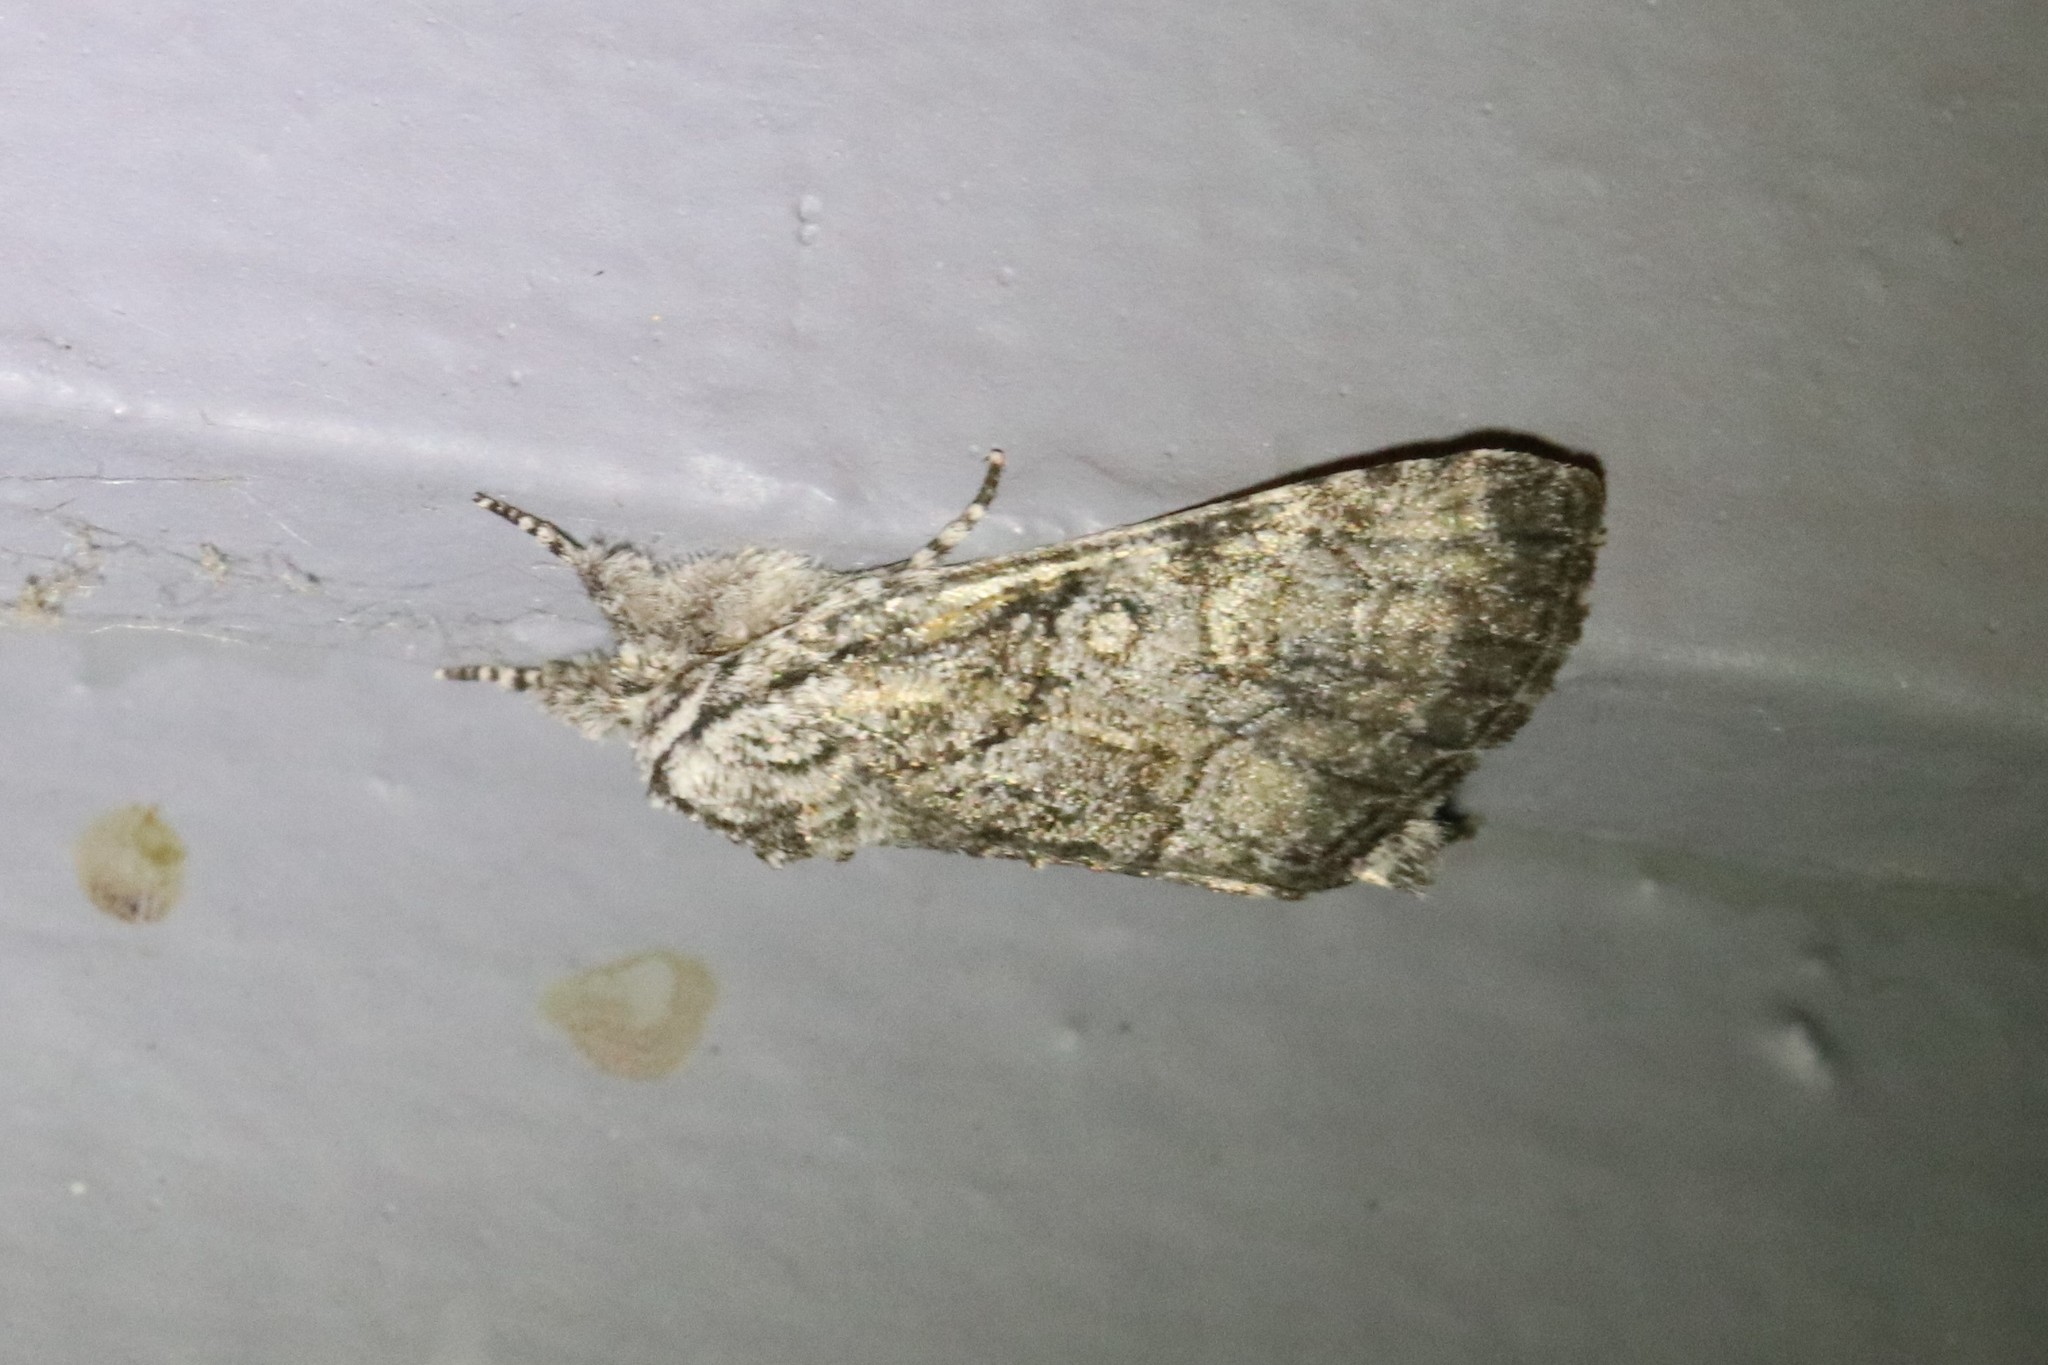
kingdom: Animalia
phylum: Arthropoda
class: Insecta
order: Lepidoptera
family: Noctuidae
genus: Raphia
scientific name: Raphia frater
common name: Brother
